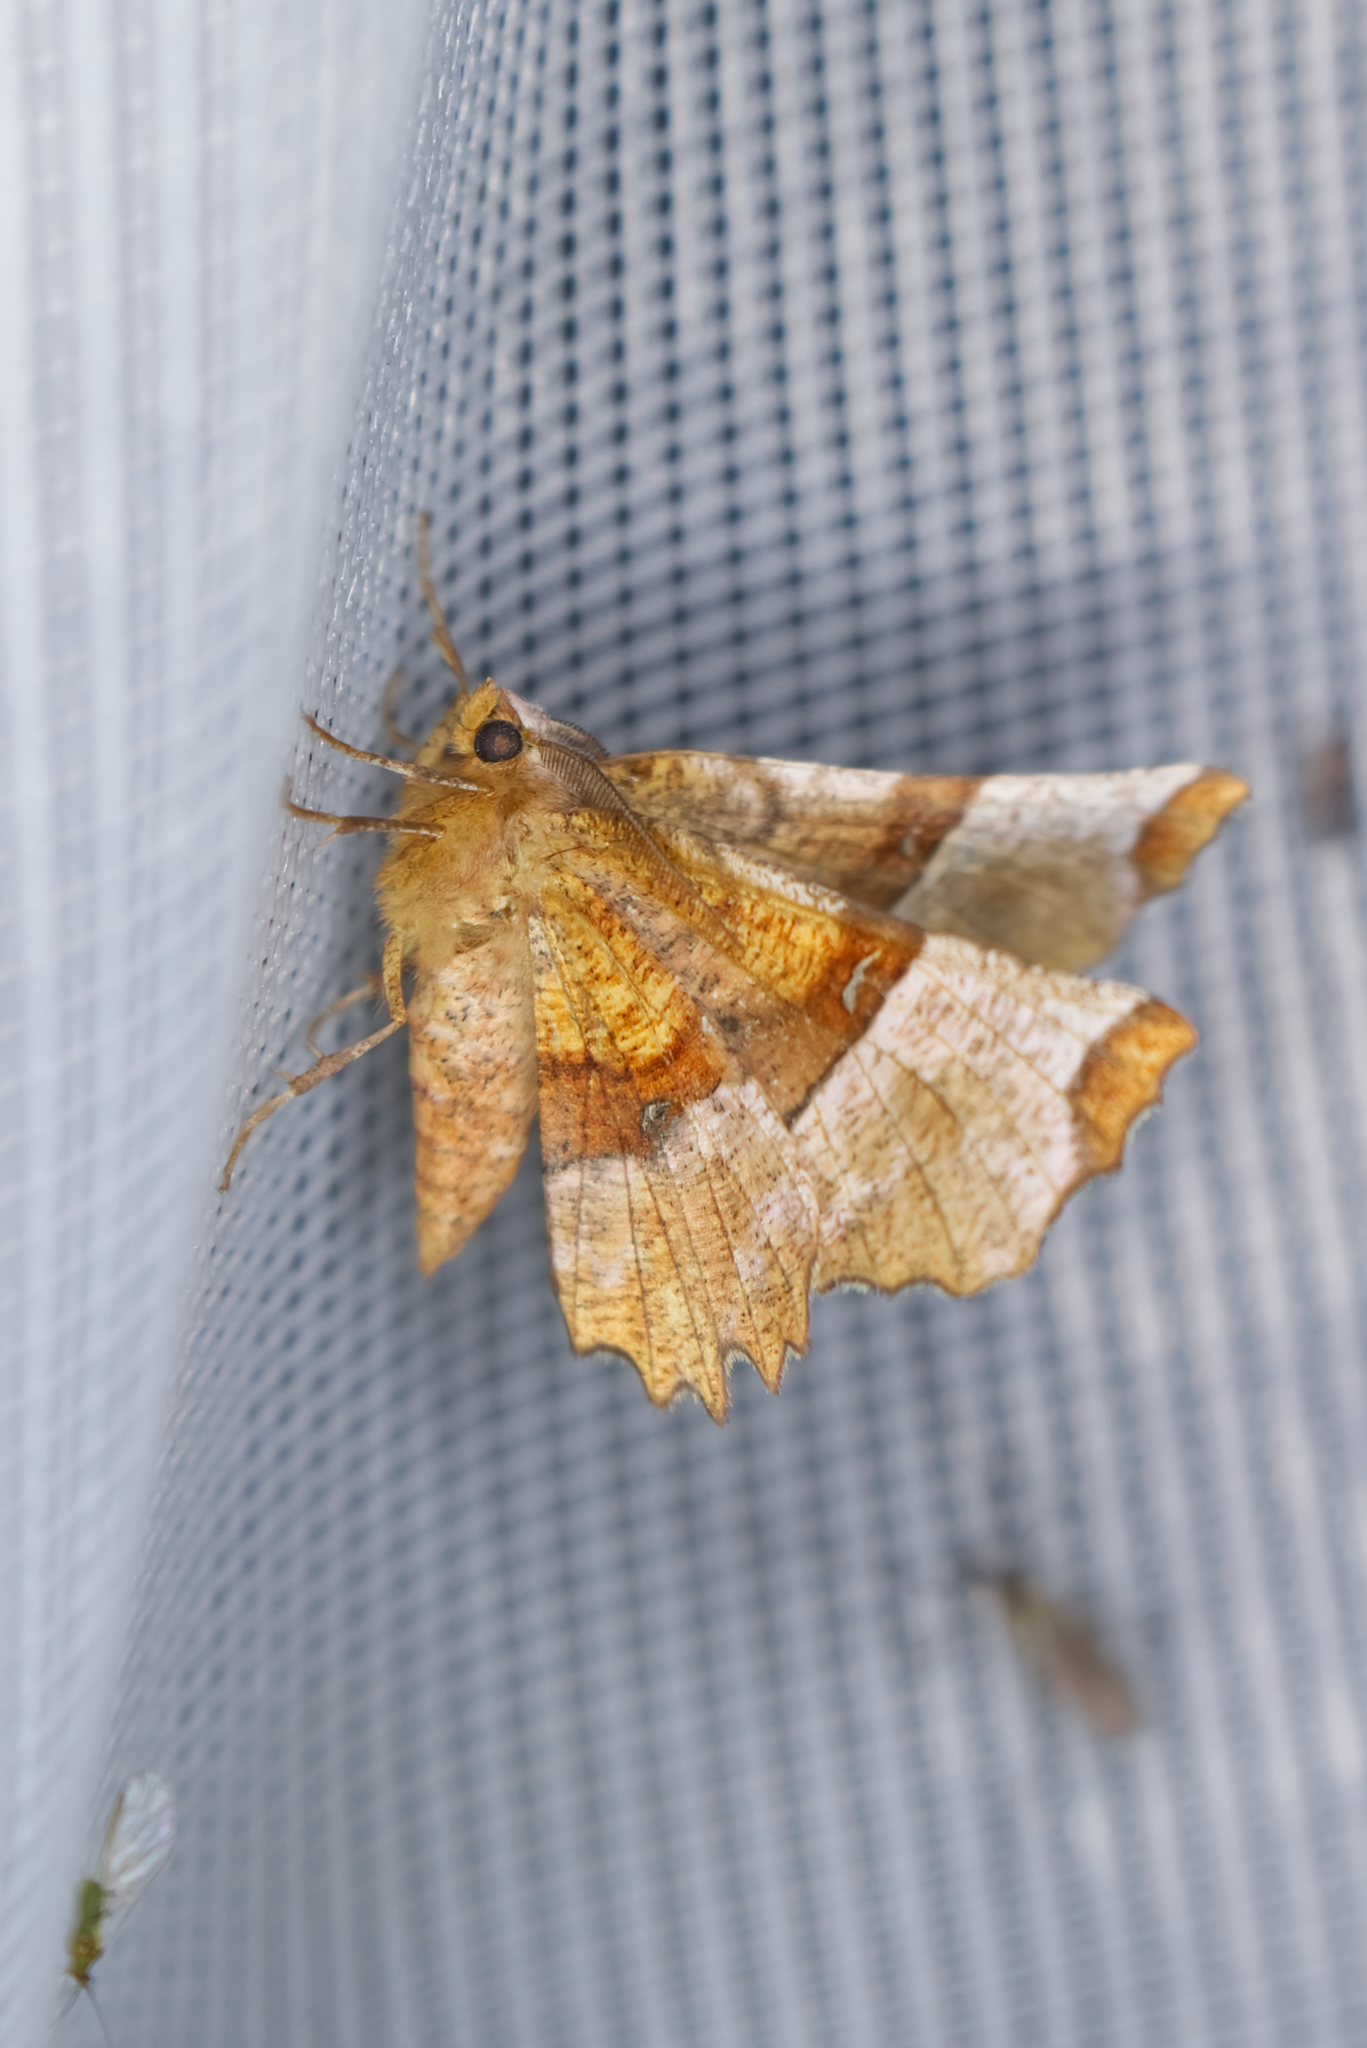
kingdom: Animalia
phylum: Arthropoda
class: Insecta
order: Lepidoptera
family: Geometridae
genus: Selenia
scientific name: Selenia lunularia
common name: Lunar thorn
